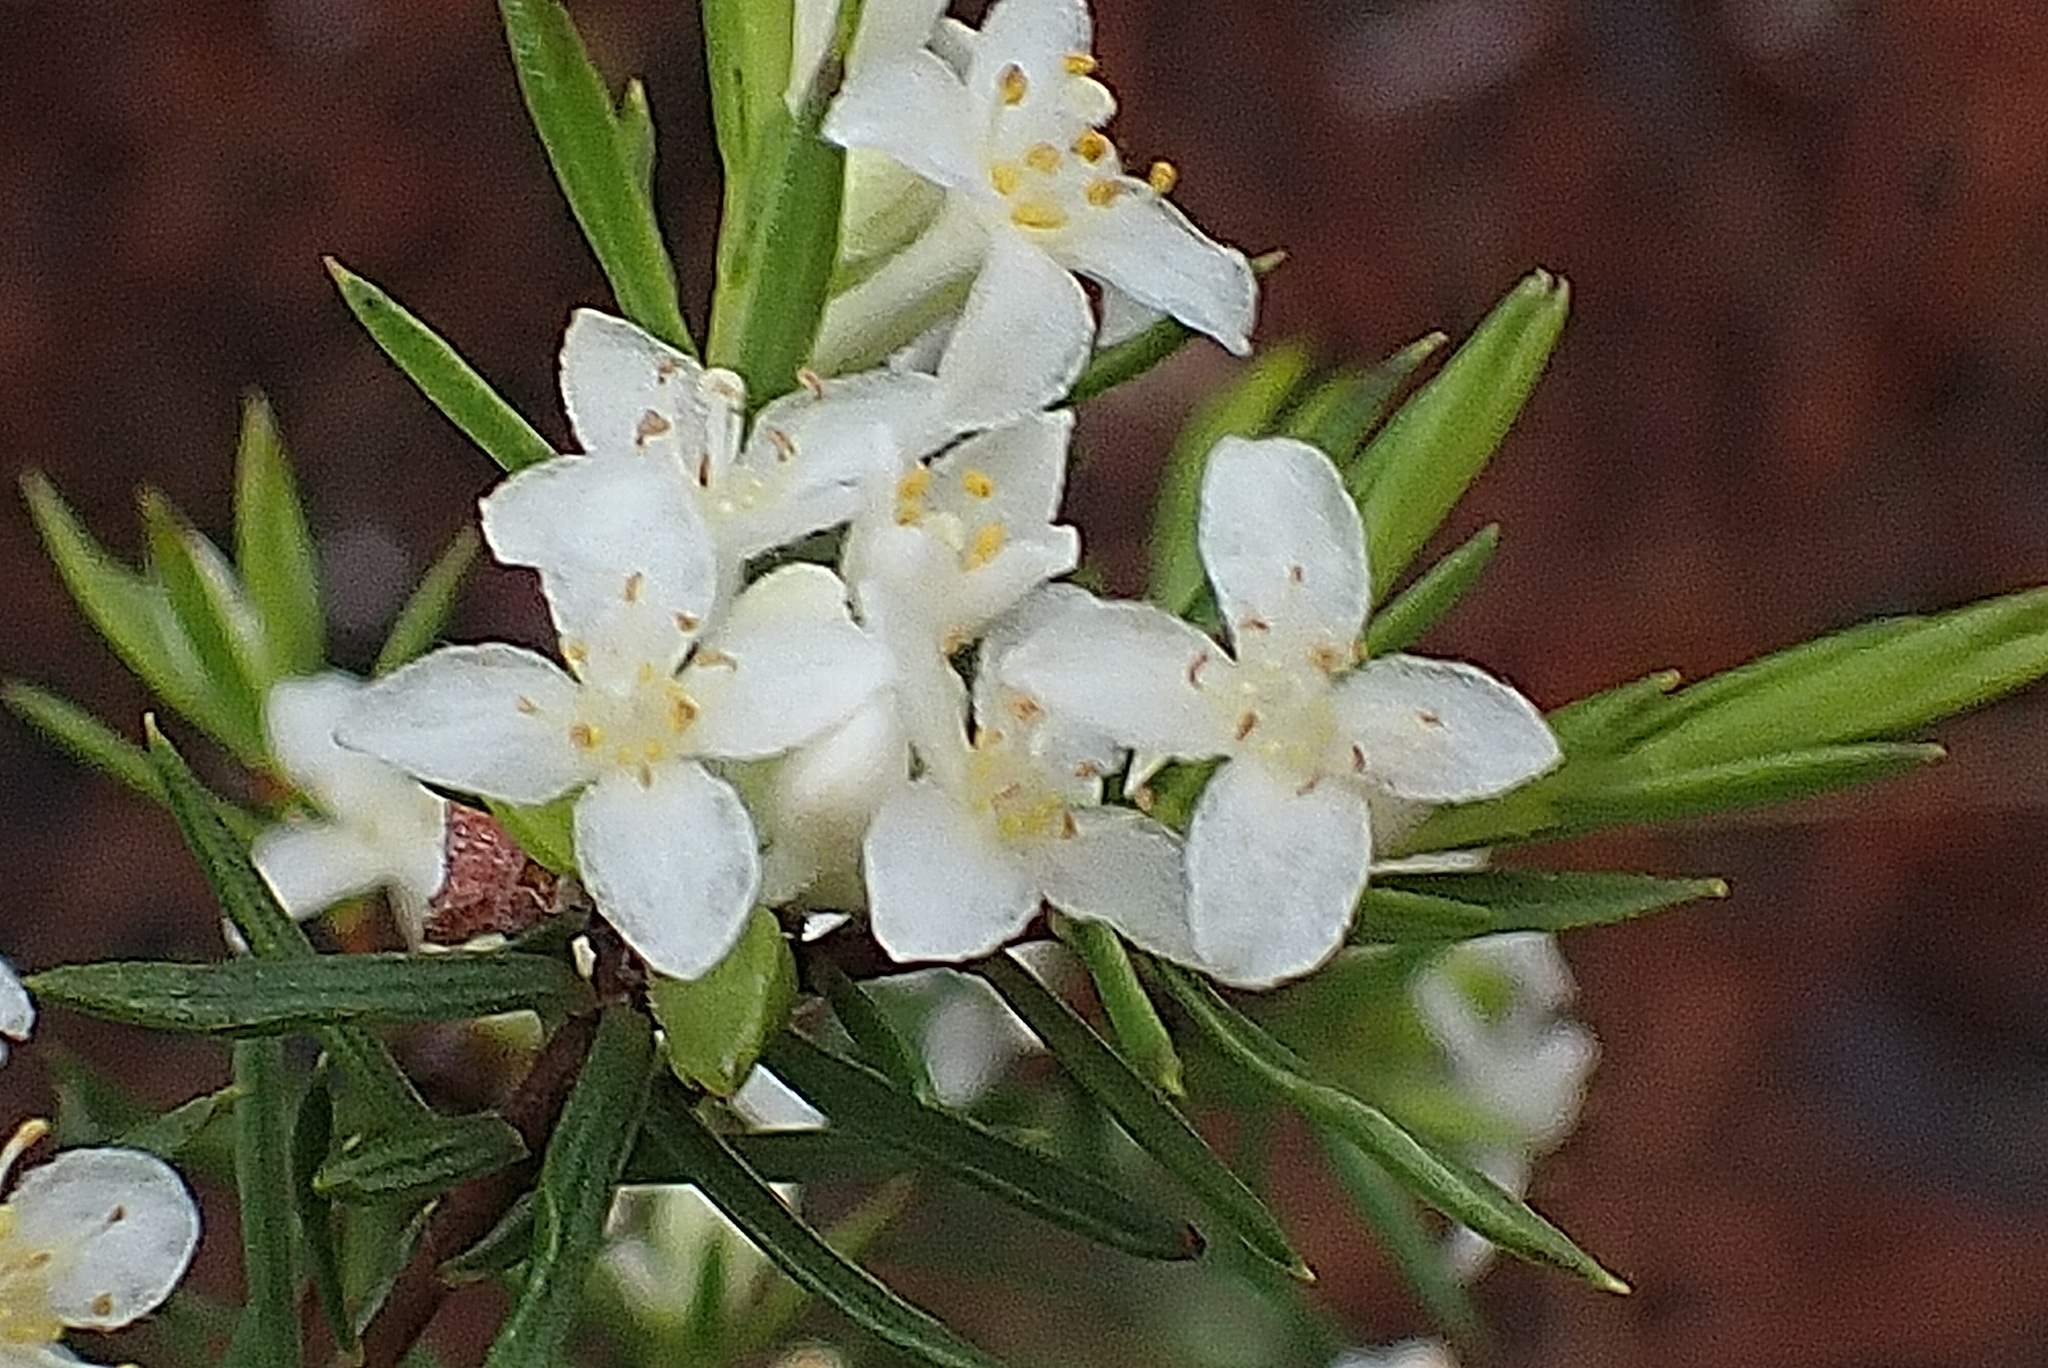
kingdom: Plantae
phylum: Tracheophyta
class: Magnoliopsida
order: Malvales
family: Thymelaeaceae
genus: Lachnaea
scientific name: Lachnaea diosmoides
